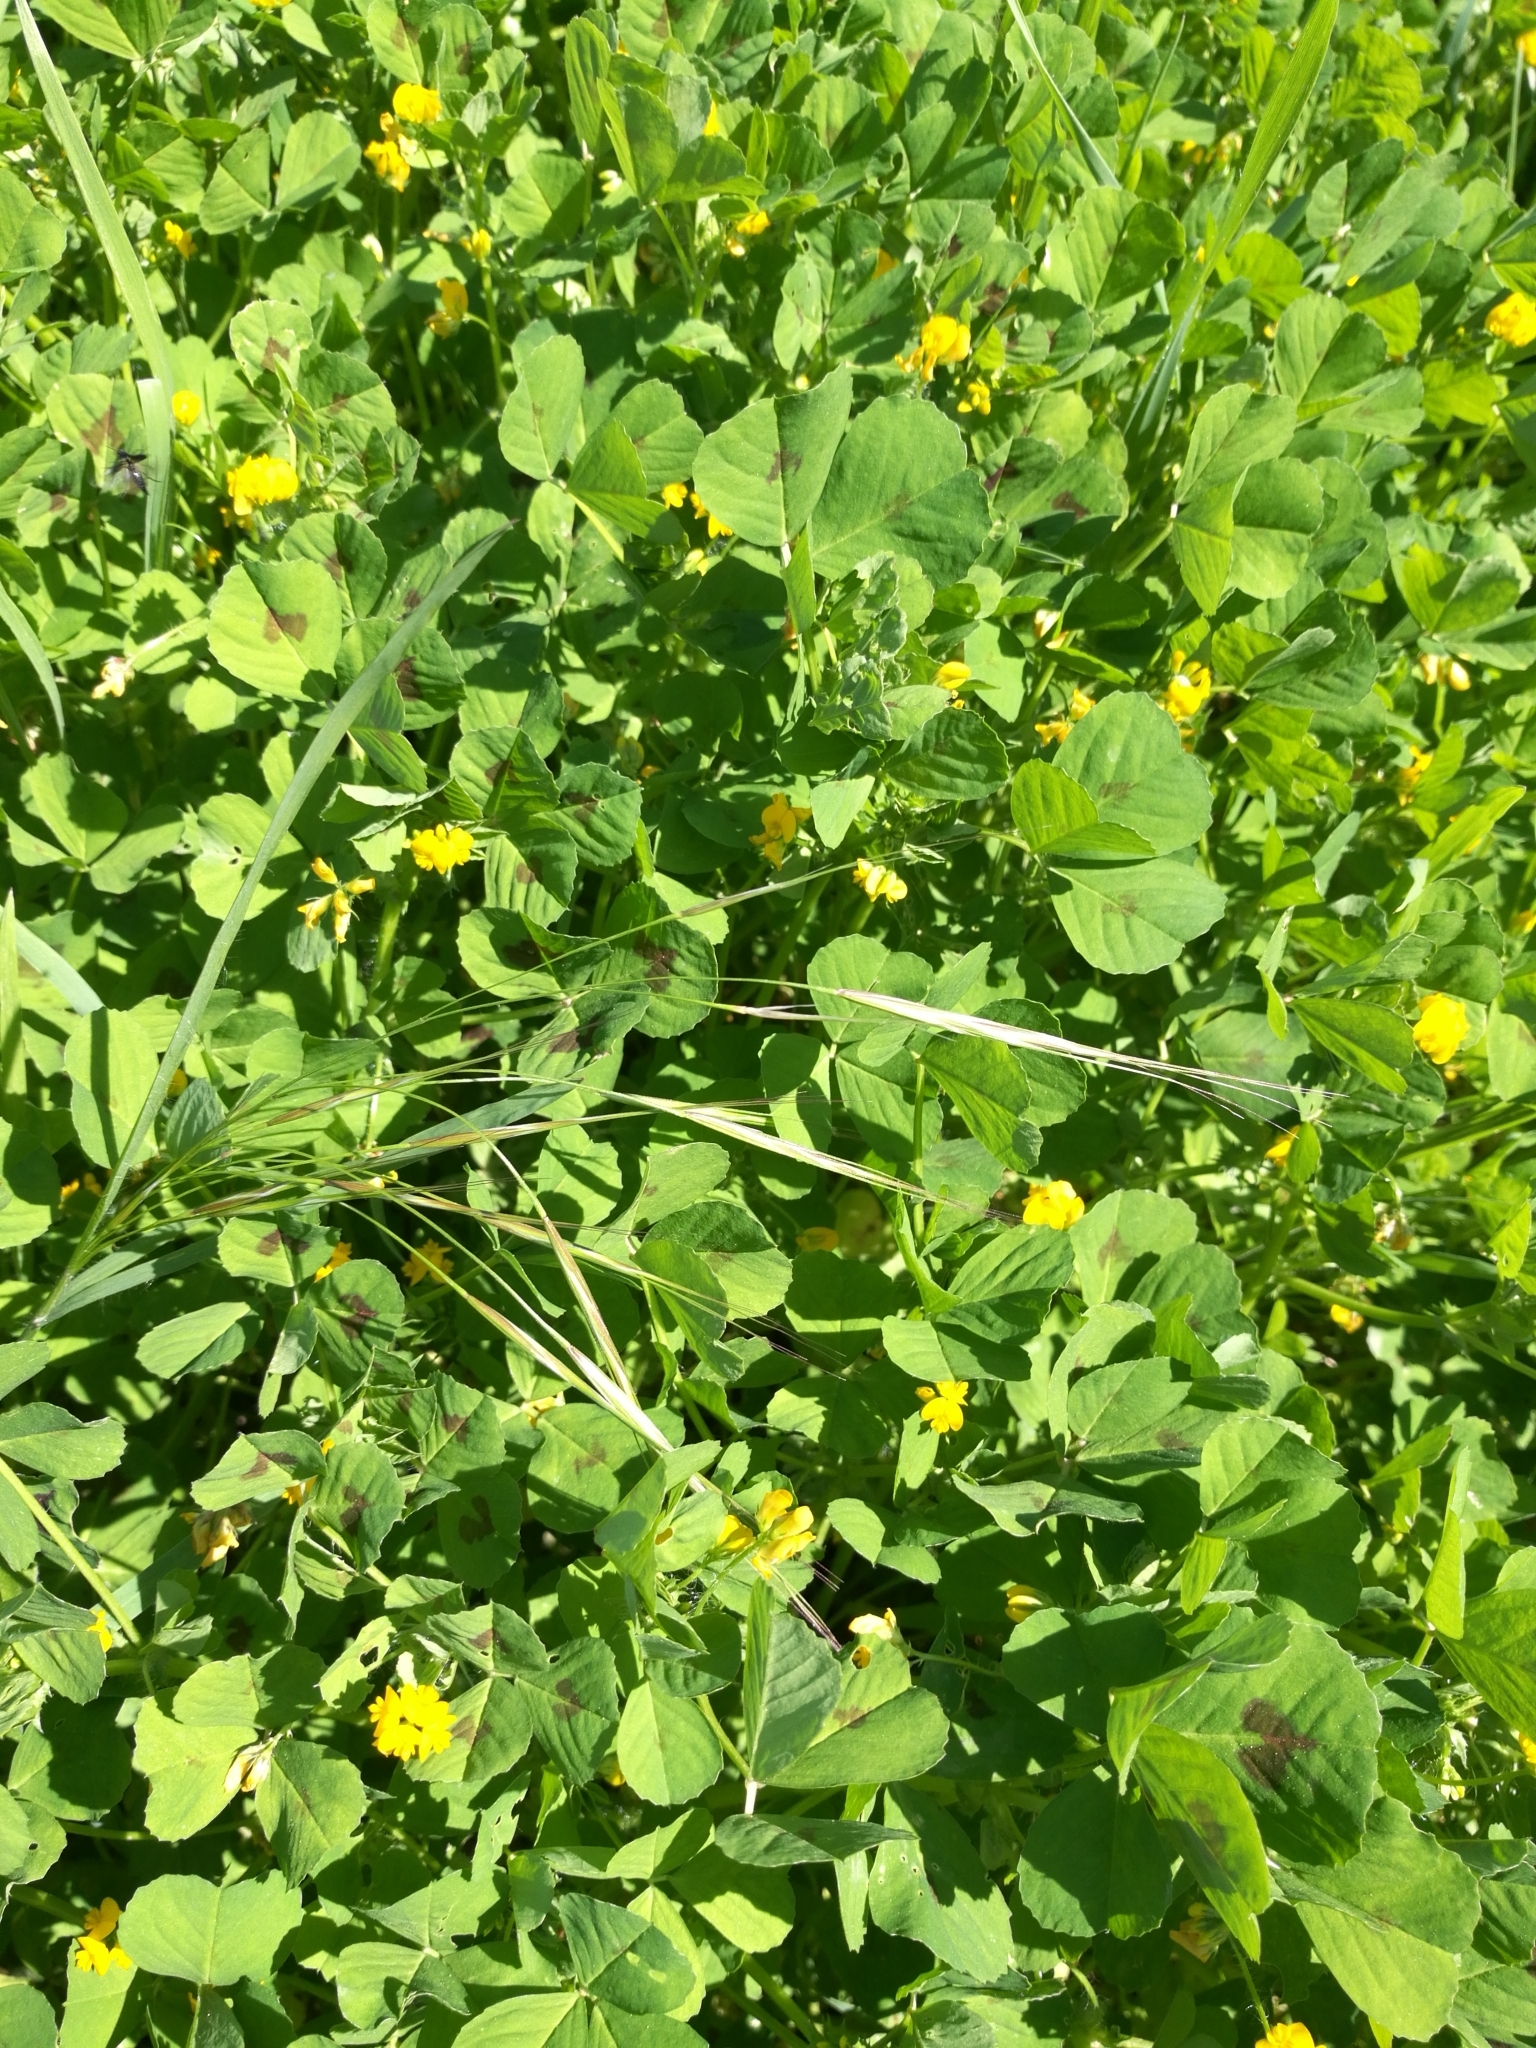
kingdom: Plantae
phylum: Tracheophyta
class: Magnoliopsida
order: Fabales
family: Fabaceae
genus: Medicago
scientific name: Medicago arabica
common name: Spotted medick
